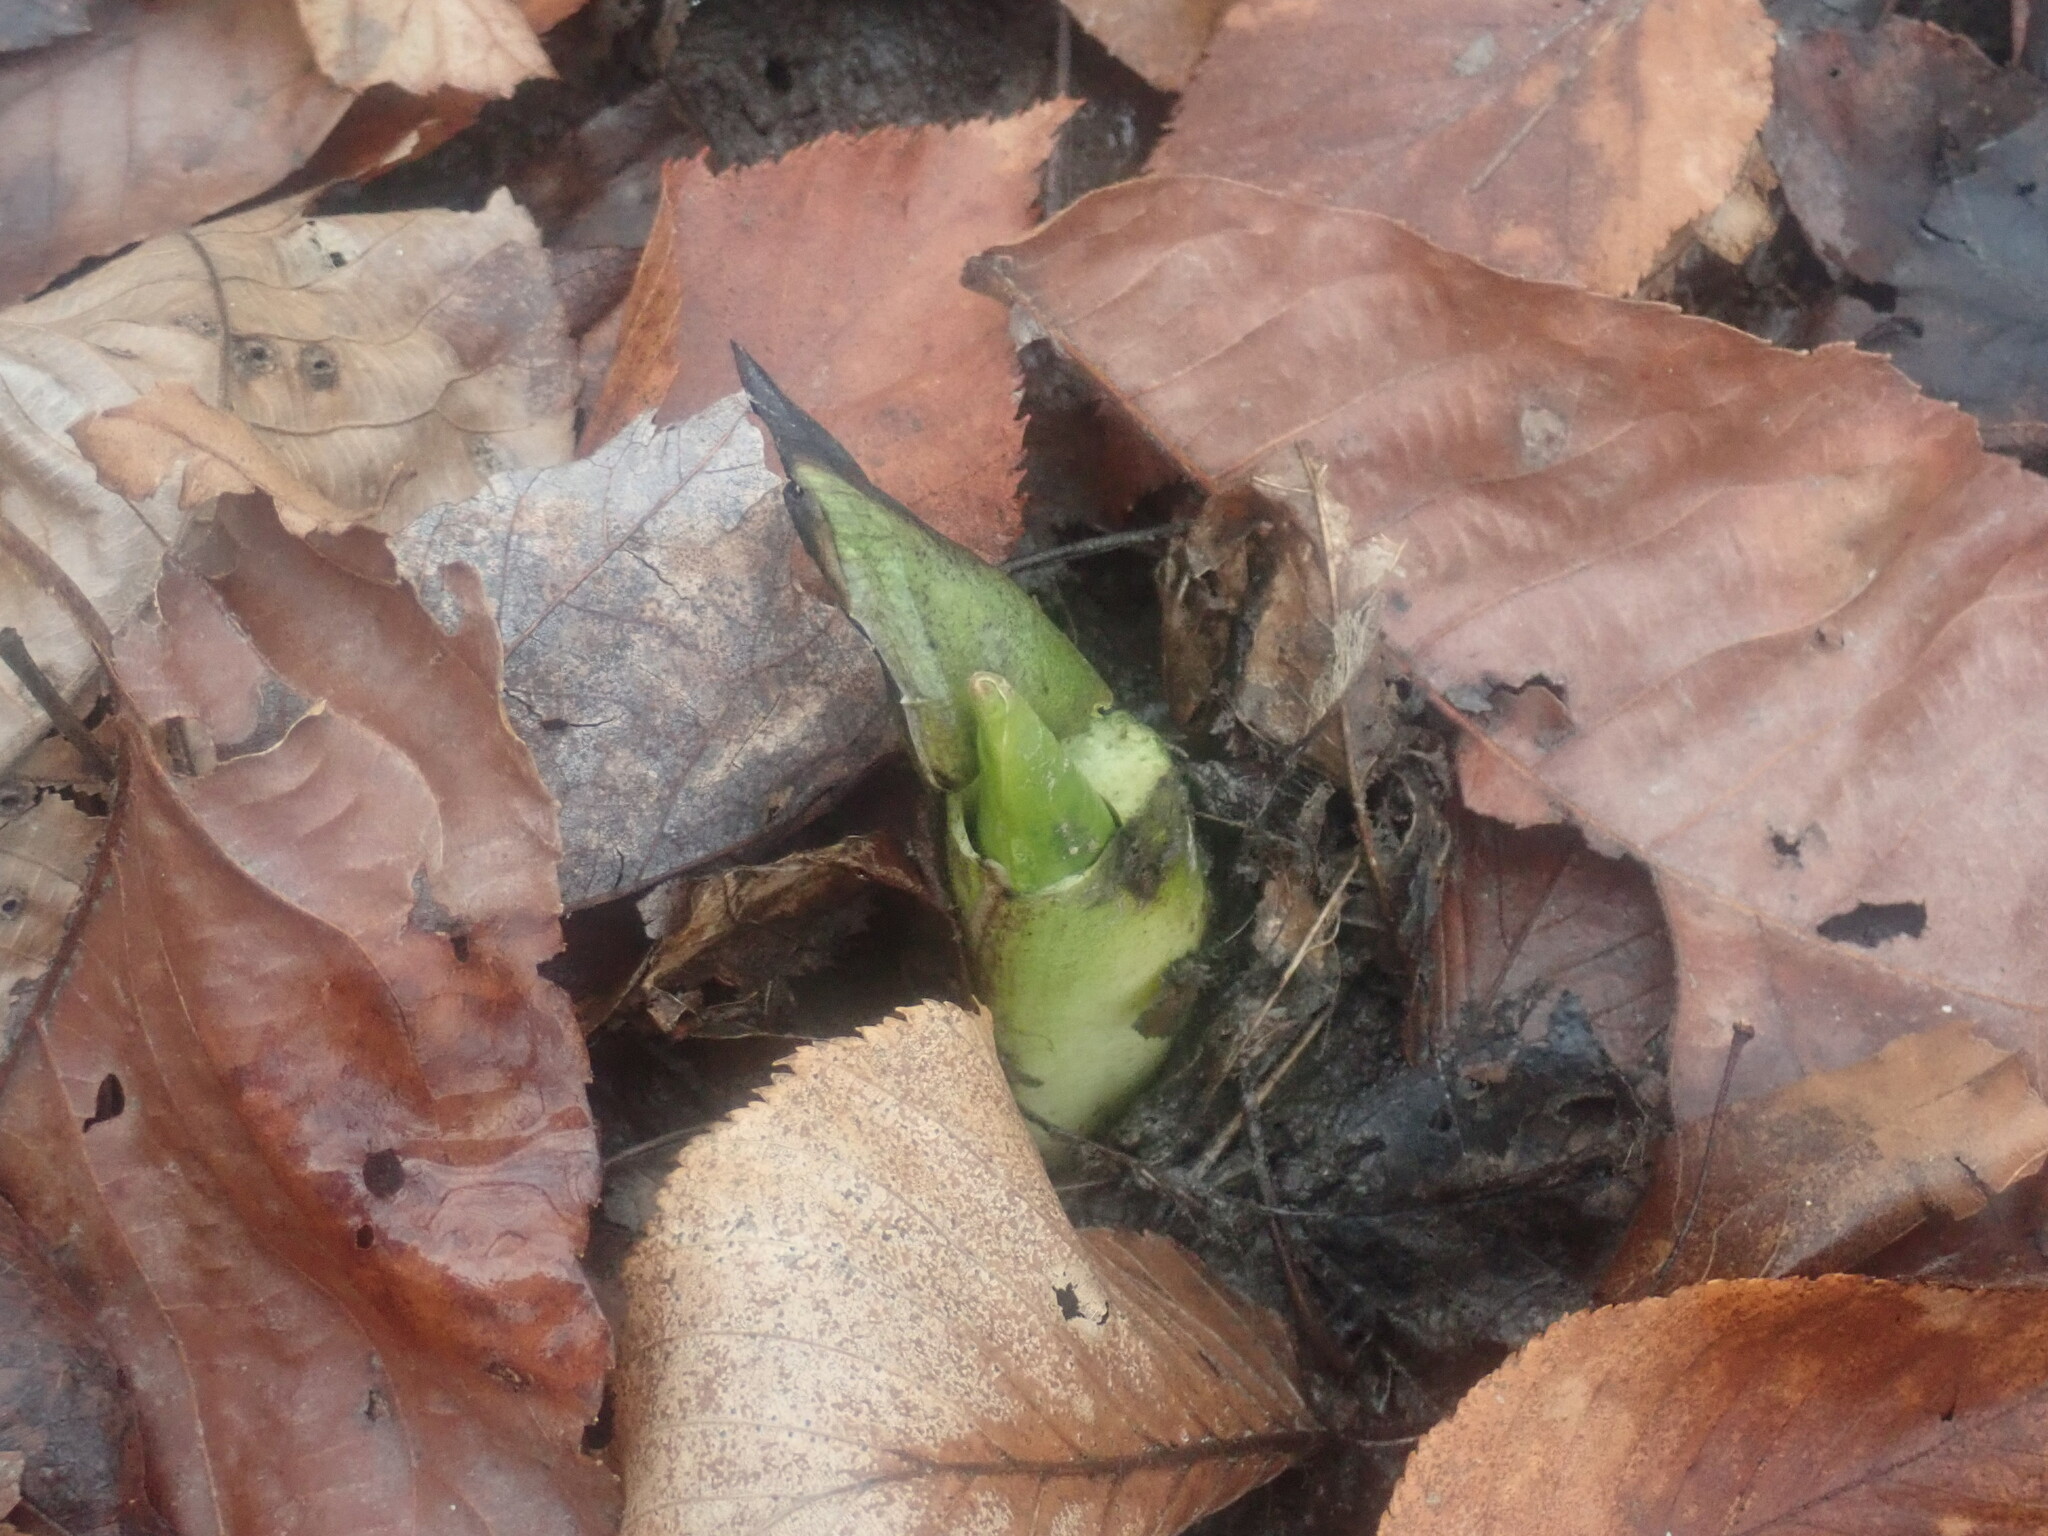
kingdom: Plantae
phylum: Tracheophyta
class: Liliopsida
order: Alismatales
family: Araceae
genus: Symplocarpus
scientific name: Symplocarpus foetidus
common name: Eastern skunk cabbage
